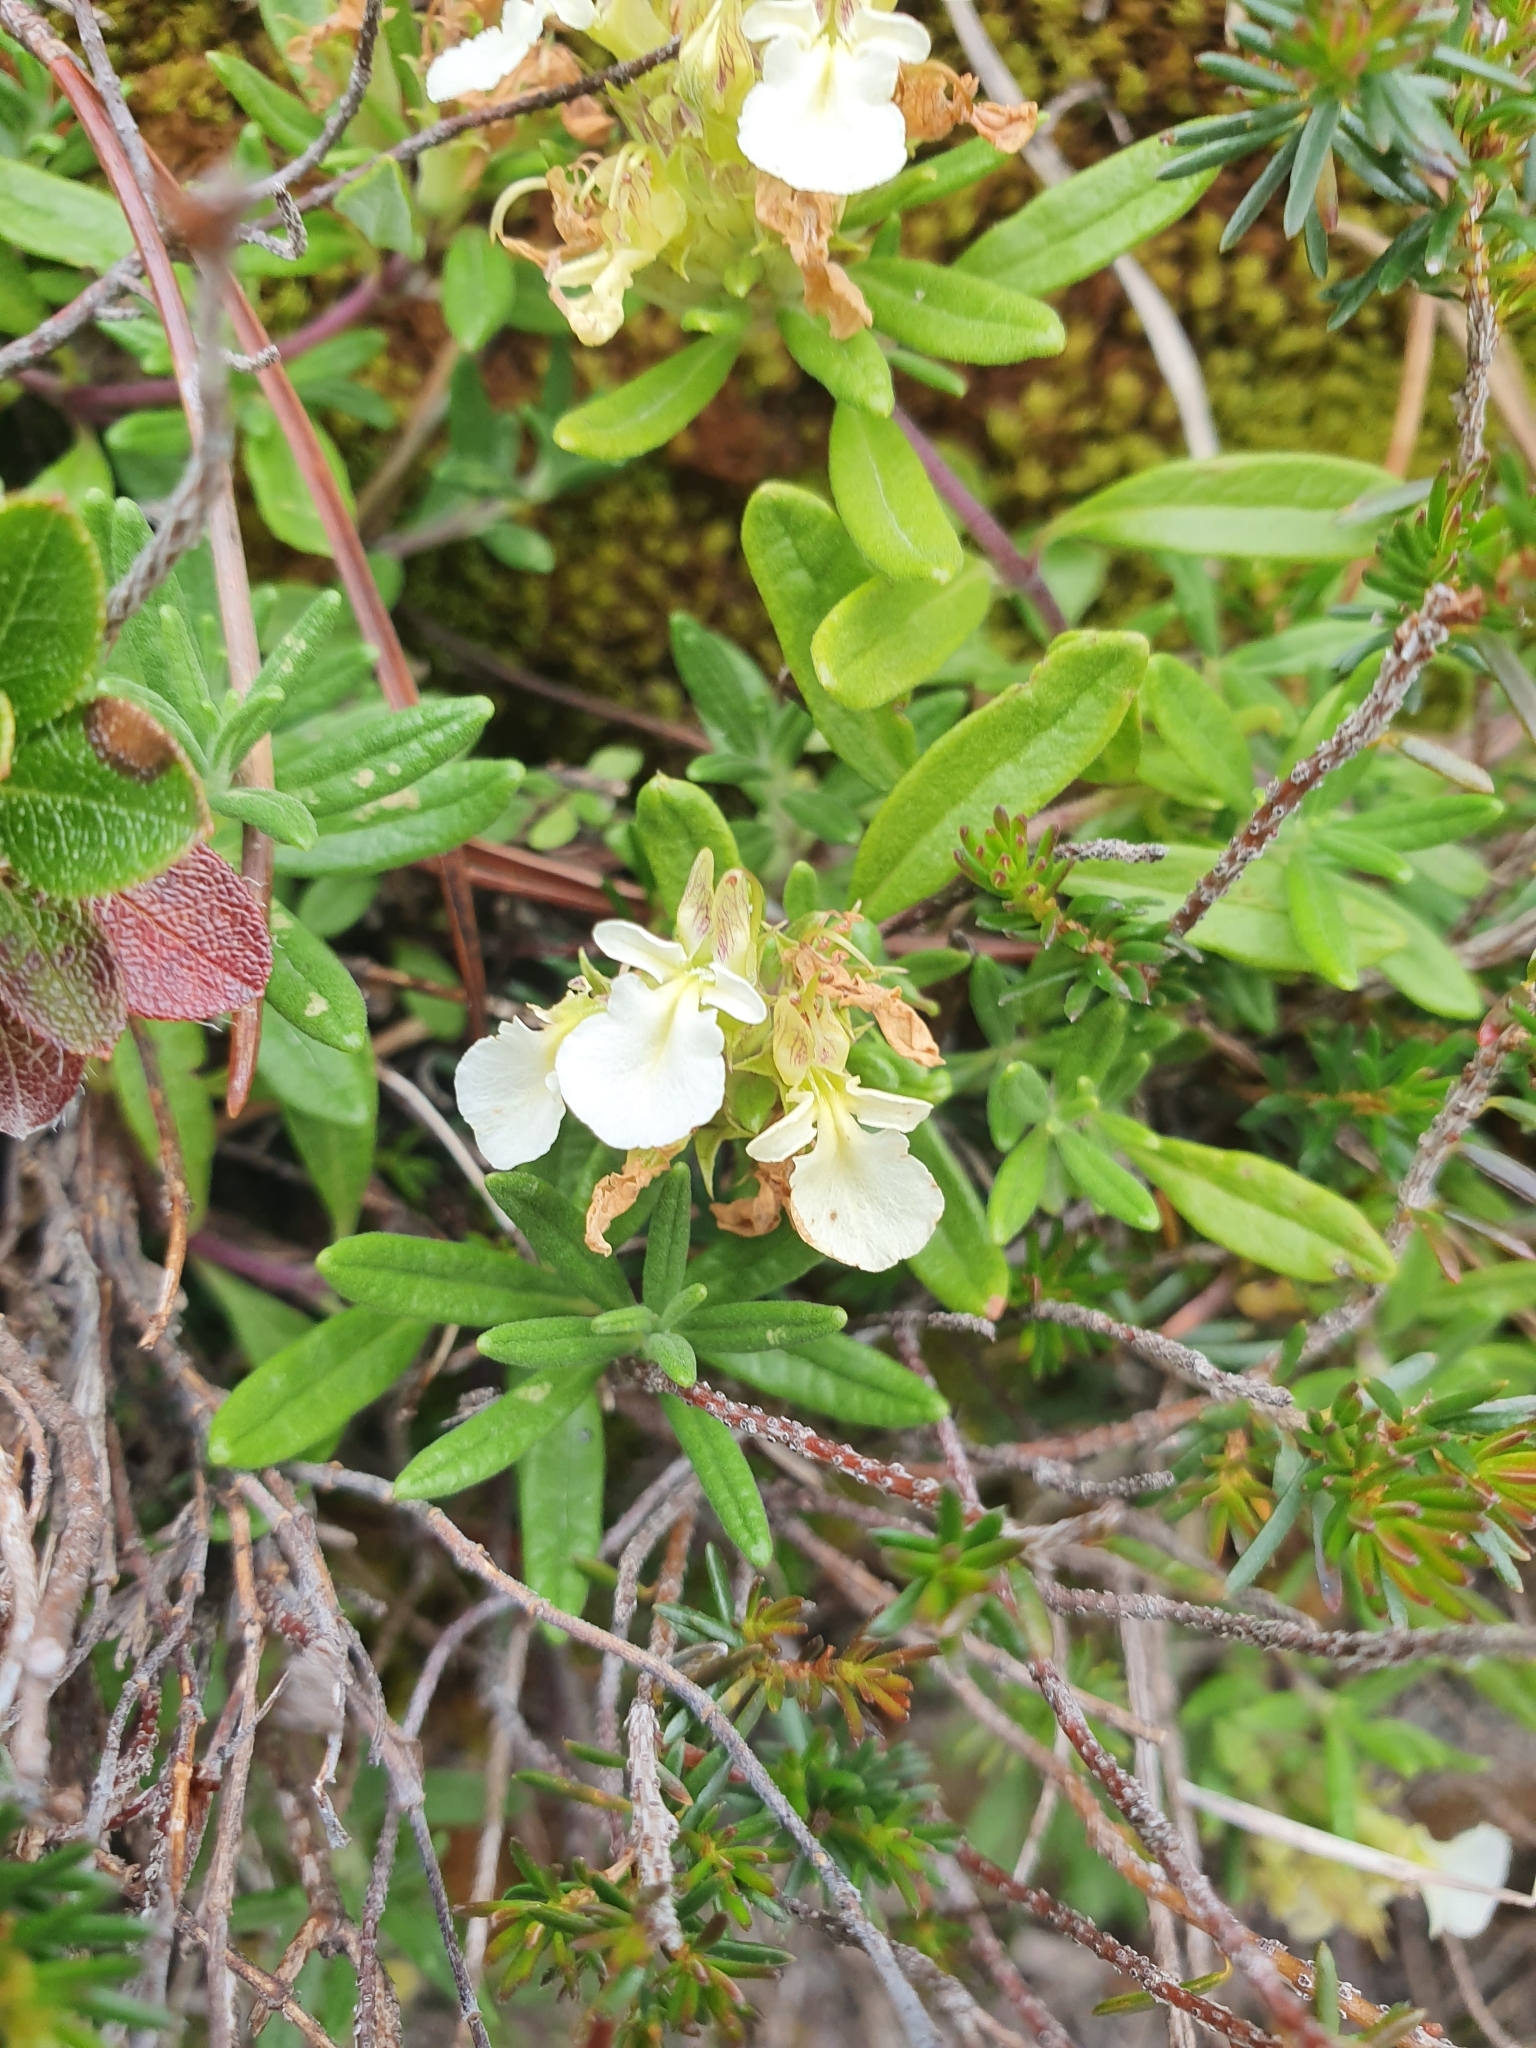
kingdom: Plantae
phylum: Tracheophyta
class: Magnoliopsida
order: Lamiales
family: Lamiaceae
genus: Teucrium
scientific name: Teucrium montanum
